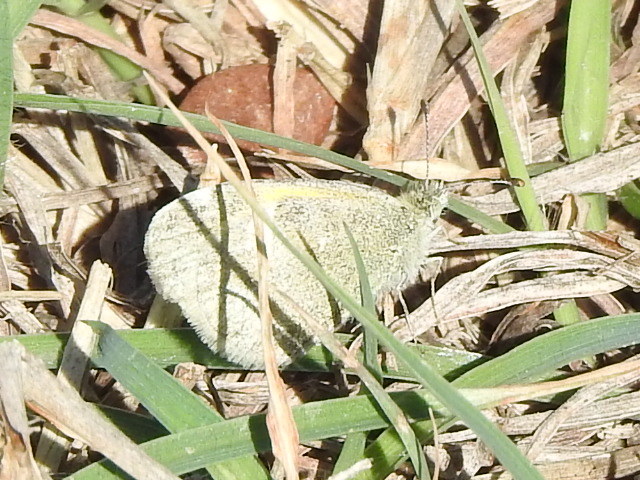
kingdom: Animalia
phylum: Arthropoda
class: Insecta
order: Lepidoptera
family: Pieridae
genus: Nathalis
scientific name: Nathalis iole
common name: Dainty sulphur
